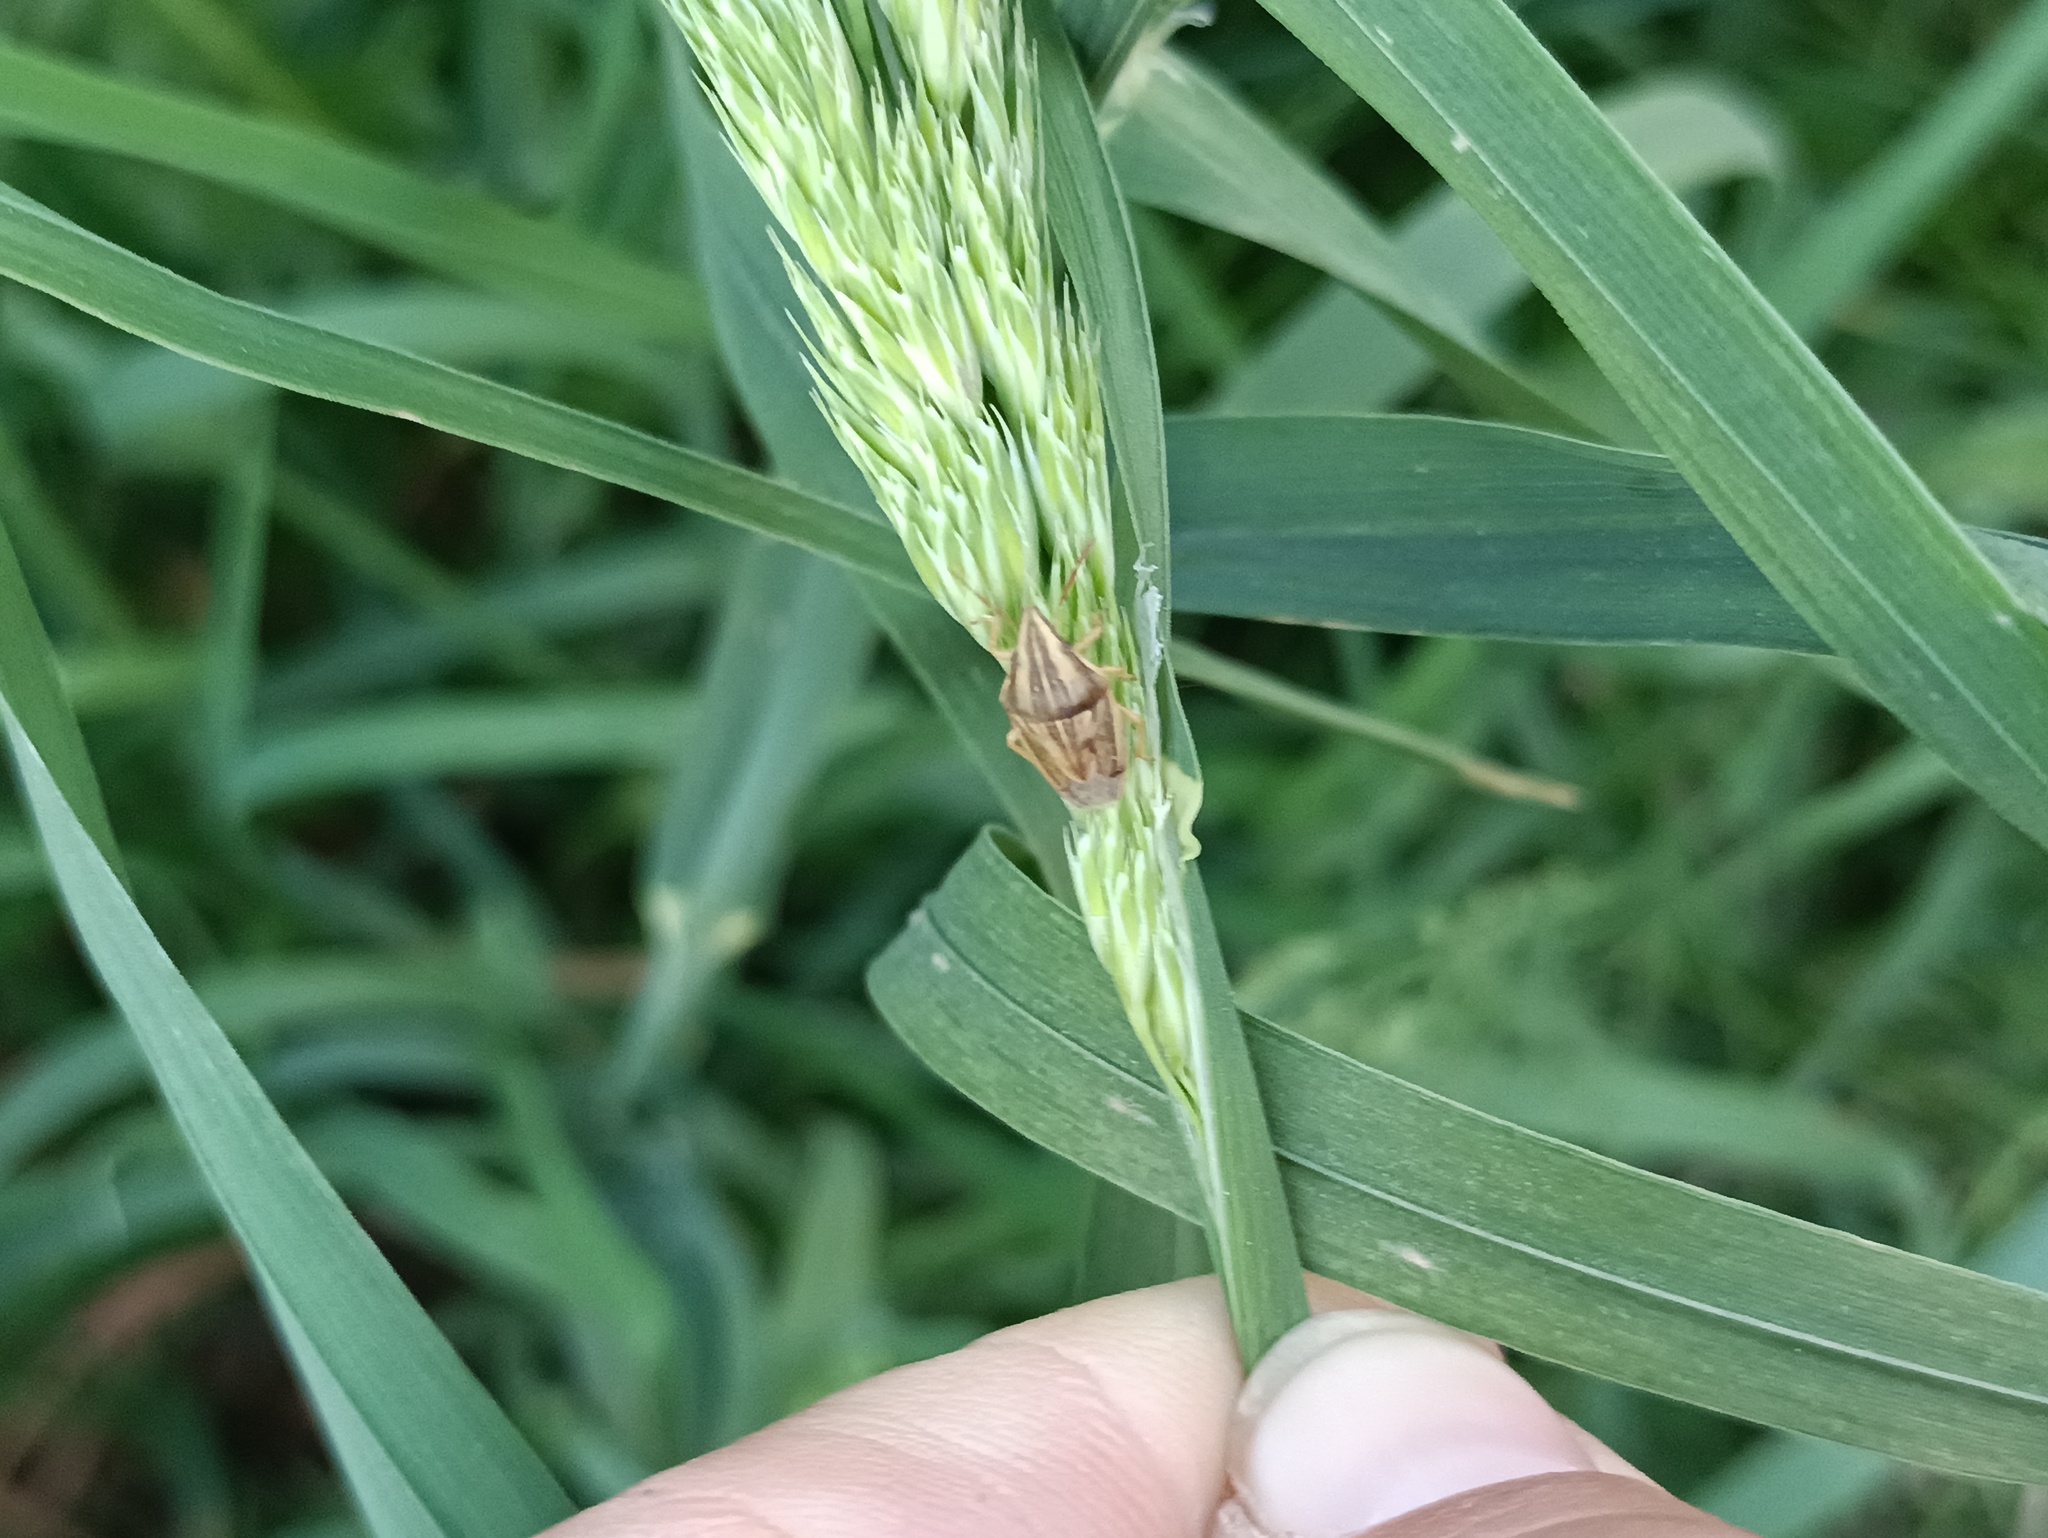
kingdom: Animalia
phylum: Arthropoda
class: Insecta
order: Hemiptera
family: Pentatomidae
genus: Aelia
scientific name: Aelia acuminata
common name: Bishop's mitre
